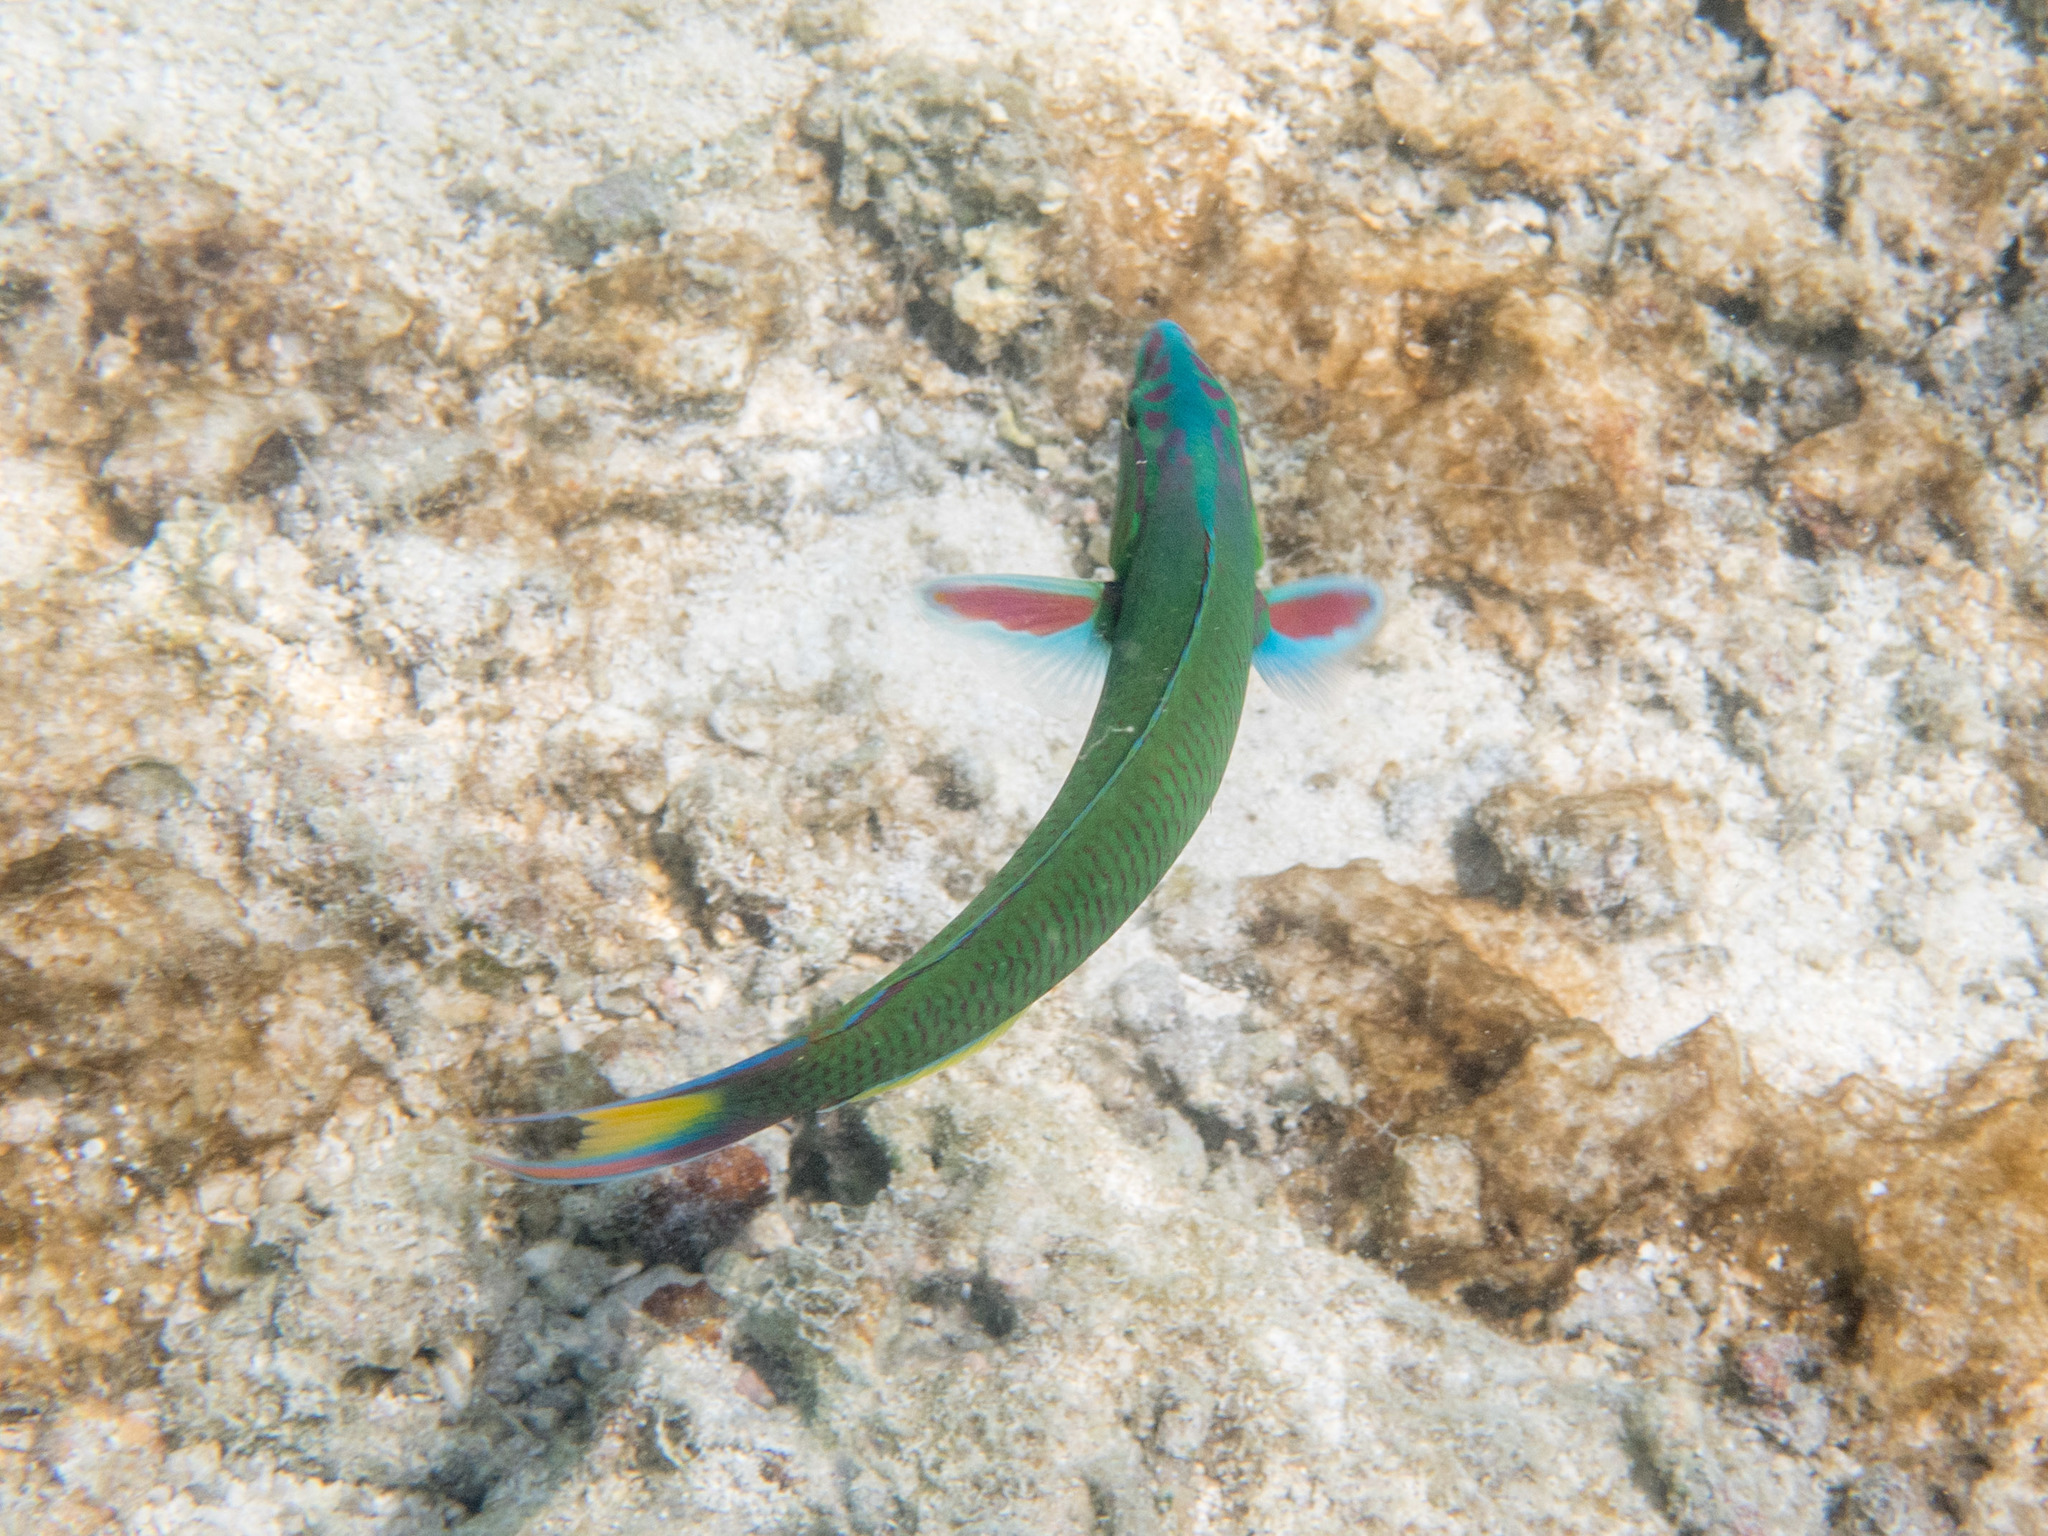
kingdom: Animalia
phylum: Chordata
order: Perciformes
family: Labridae
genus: Thalassoma
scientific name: Thalassoma lunare
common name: Blue wrasse
